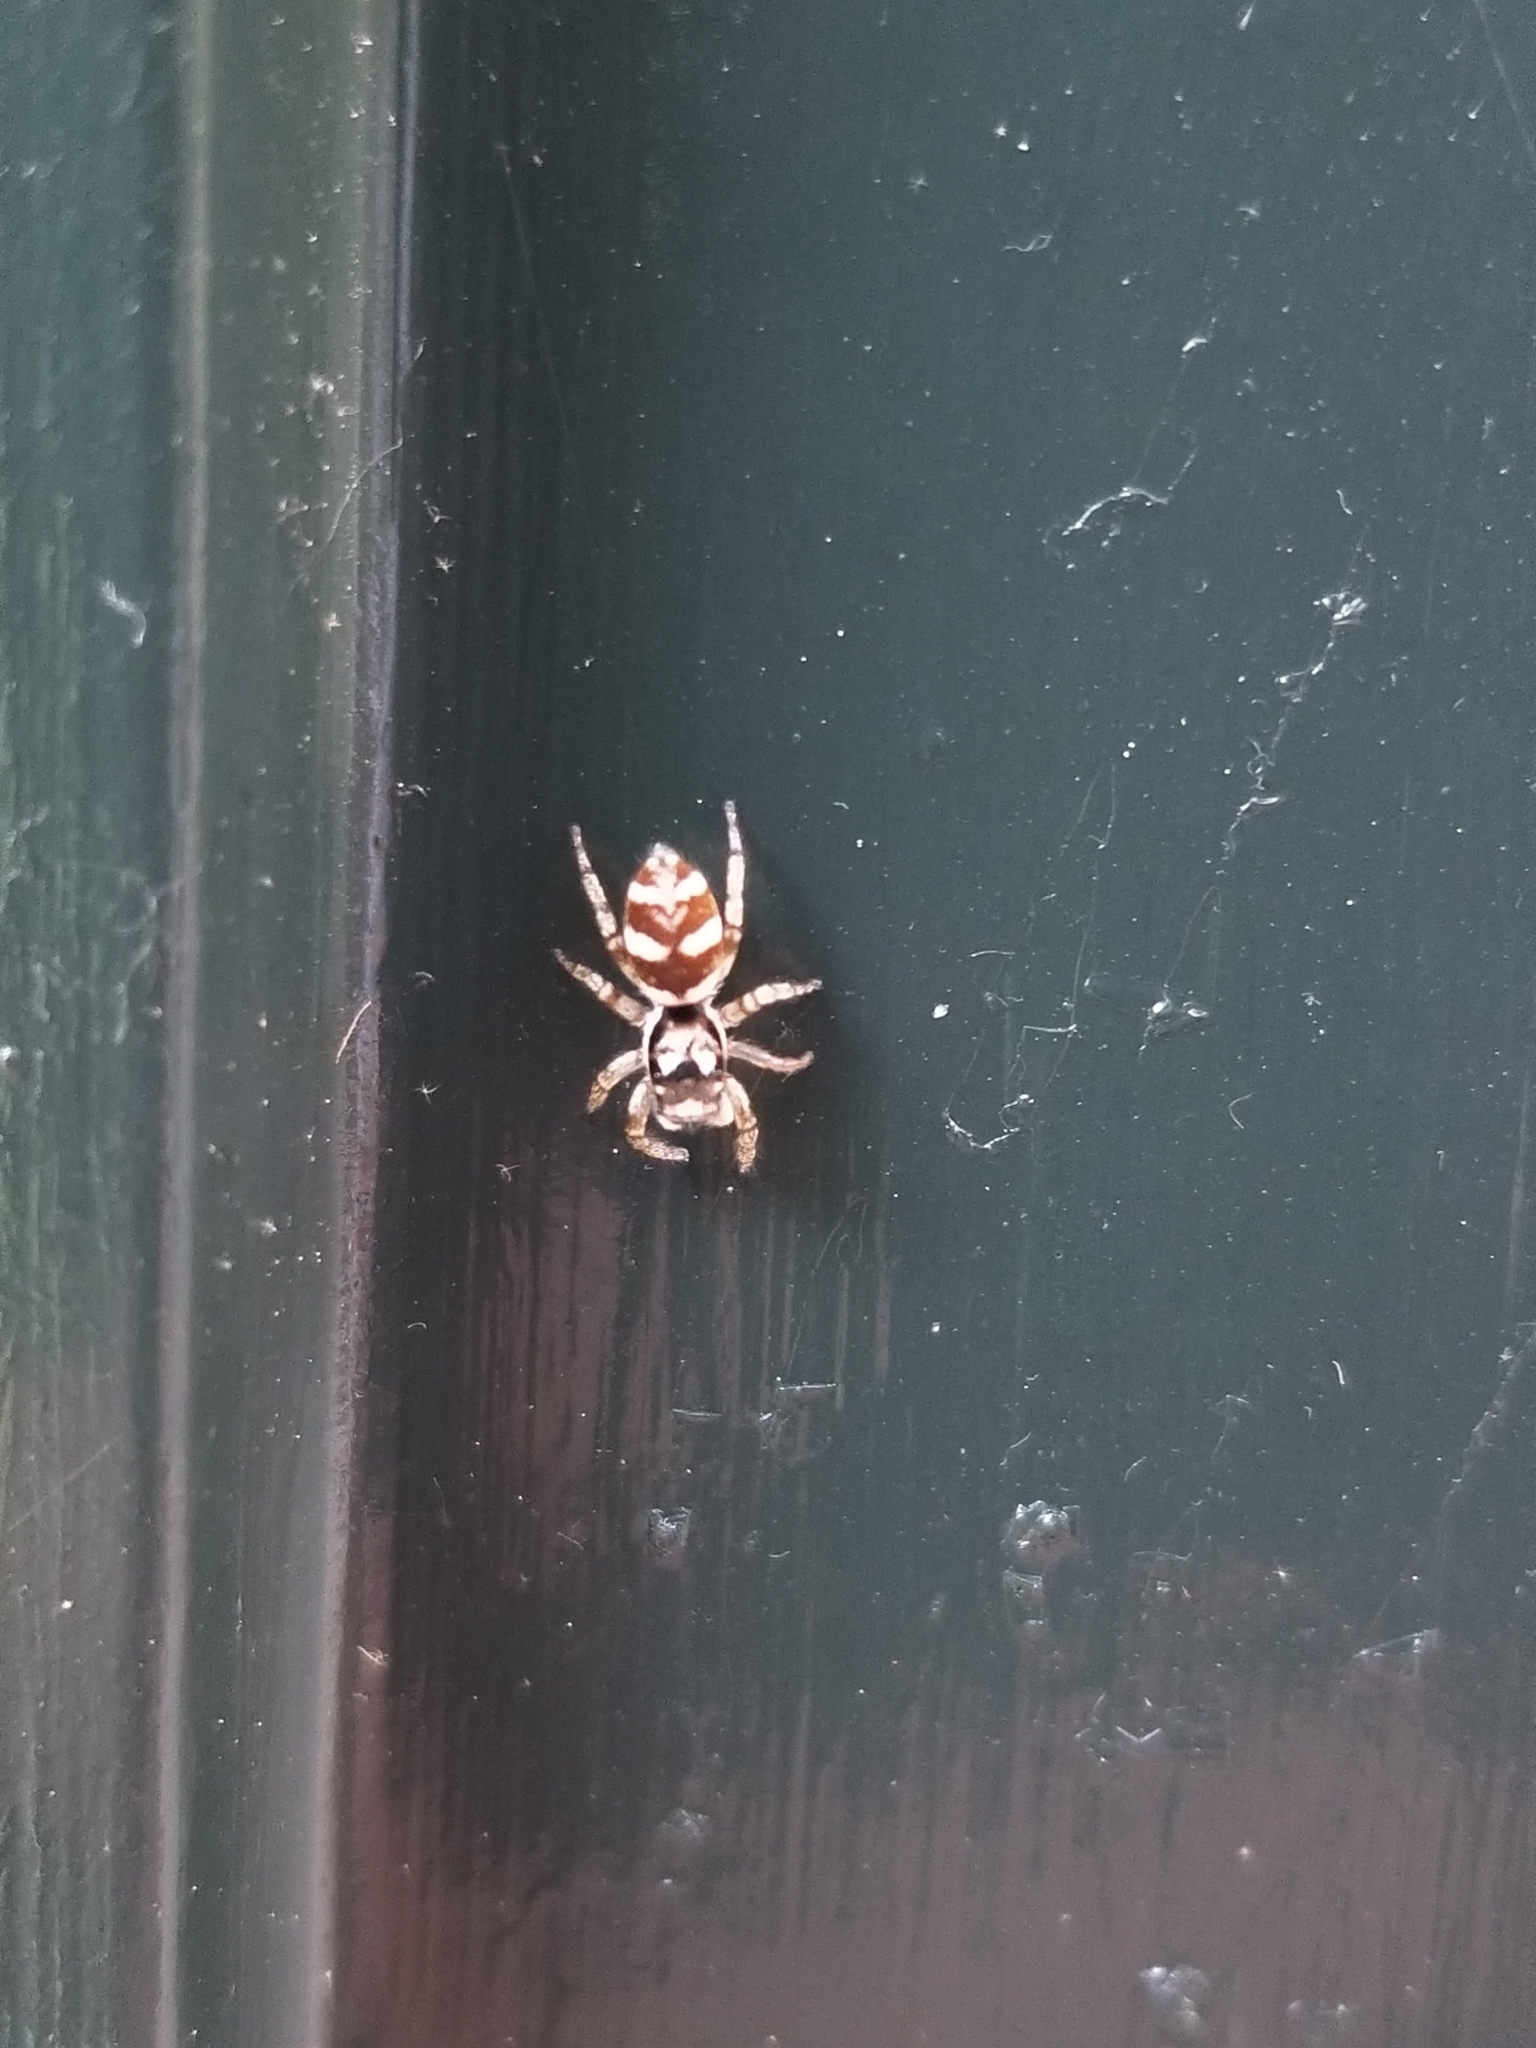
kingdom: Animalia
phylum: Arthropoda
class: Arachnida
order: Araneae
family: Salticidae
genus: Salticus
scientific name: Salticus scenicus
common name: Zebra jumper
